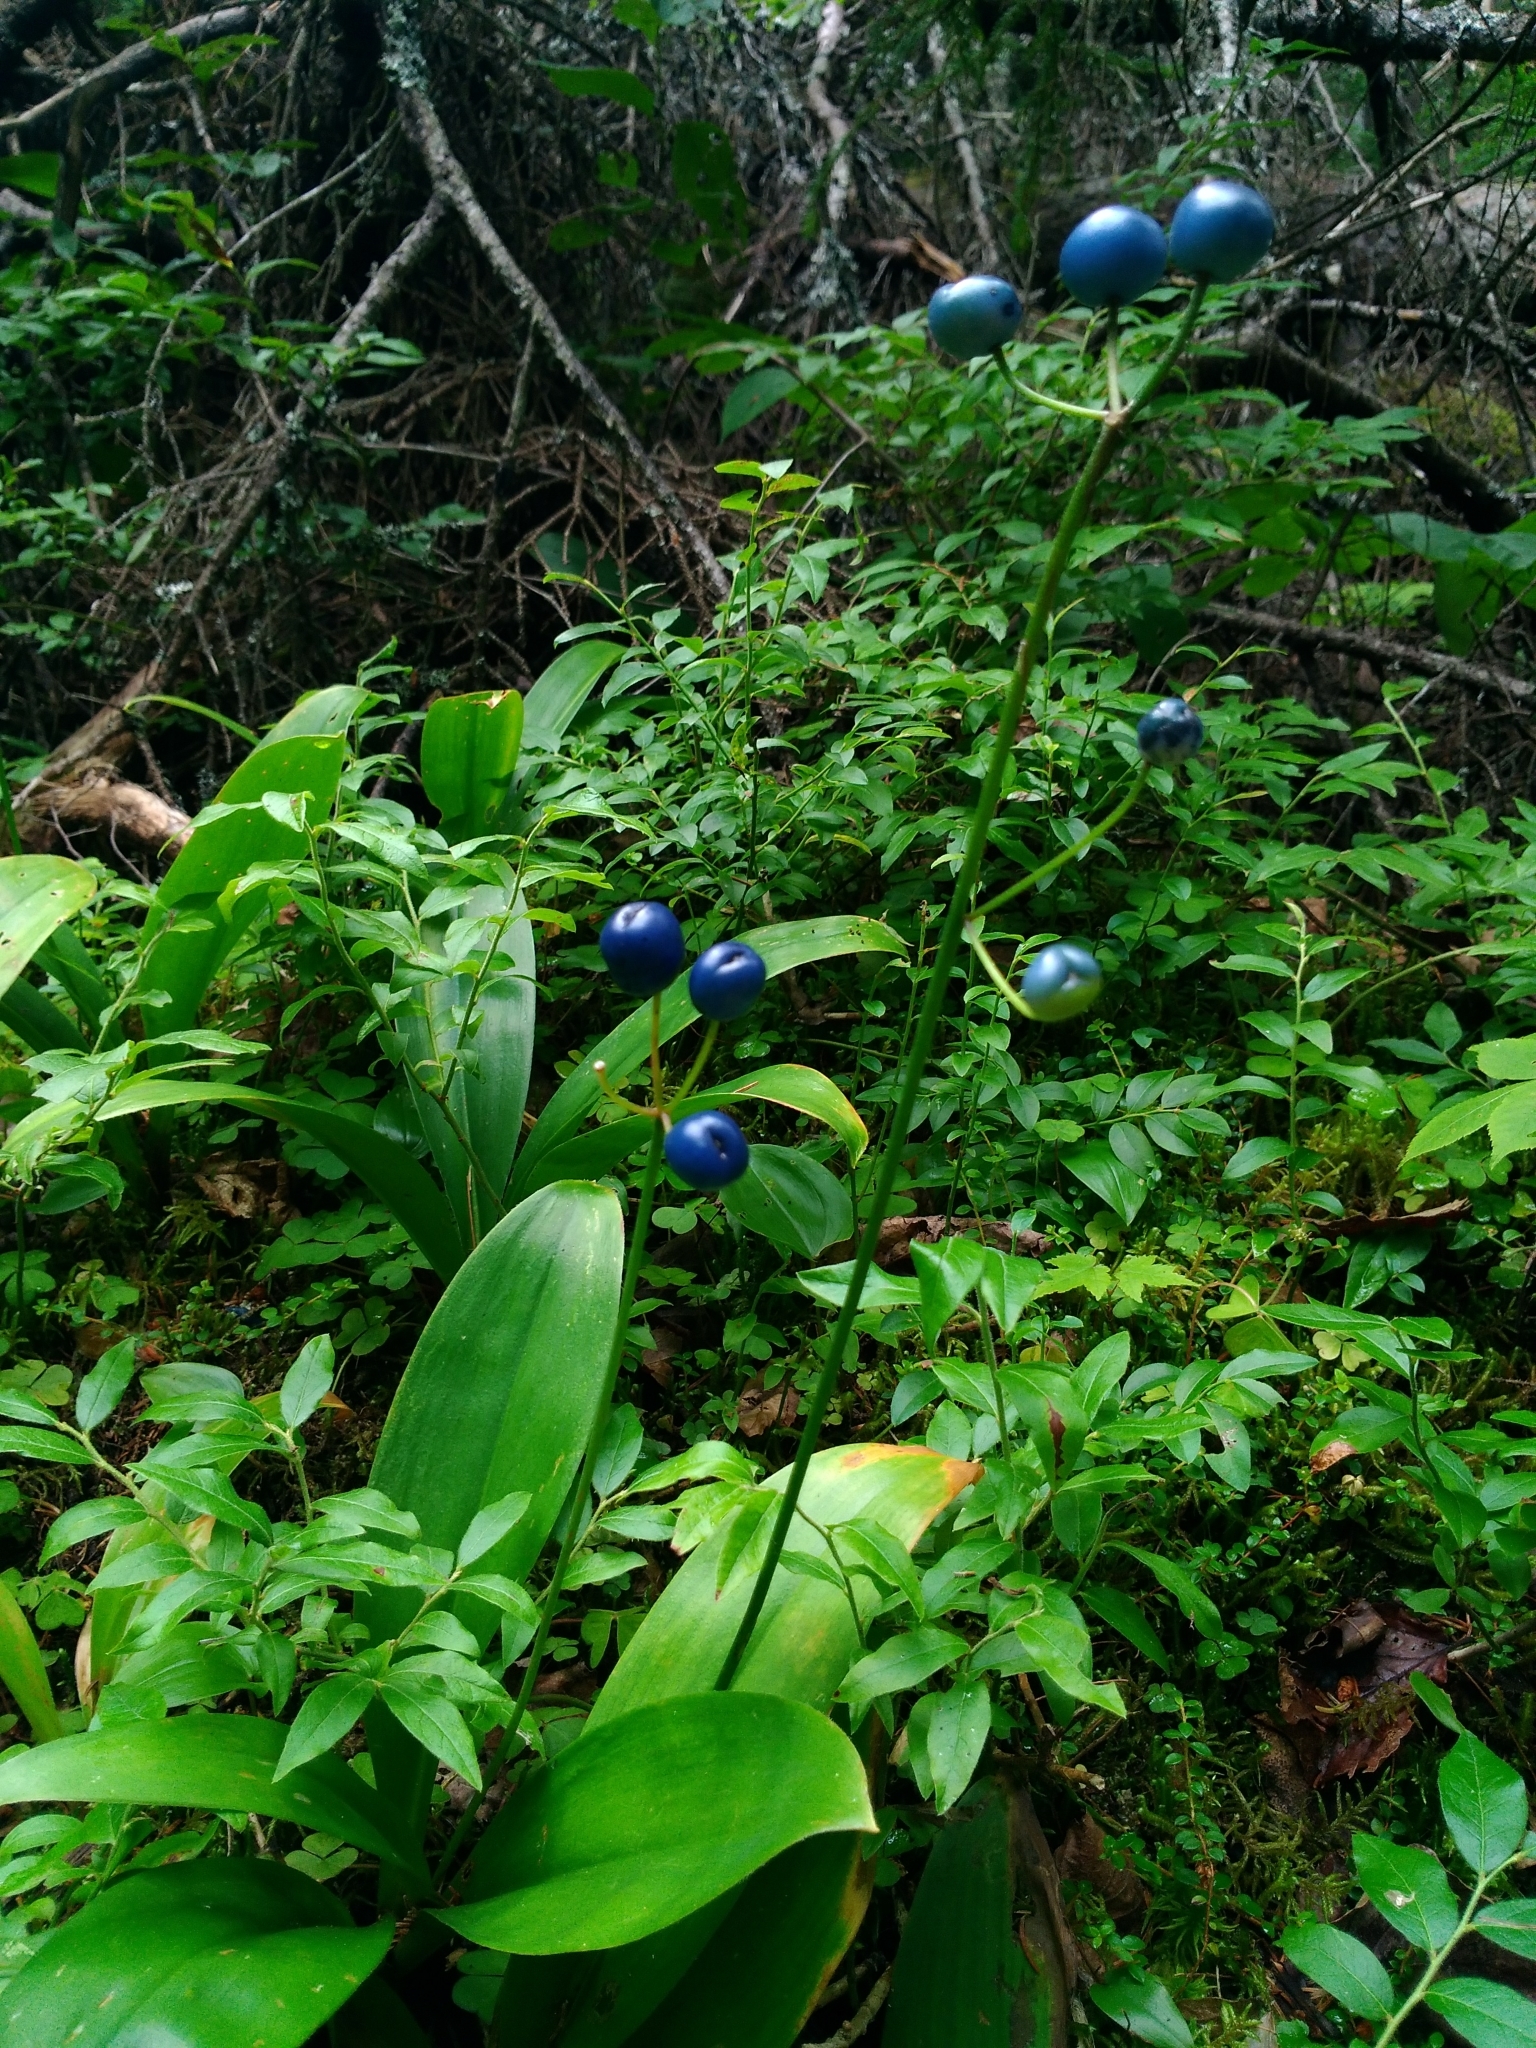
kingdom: Plantae
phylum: Tracheophyta
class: Liliopsida
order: Liliales
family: Liliaceae
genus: Clintonia
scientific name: Clintonia borealis
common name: Yellow clintonia
